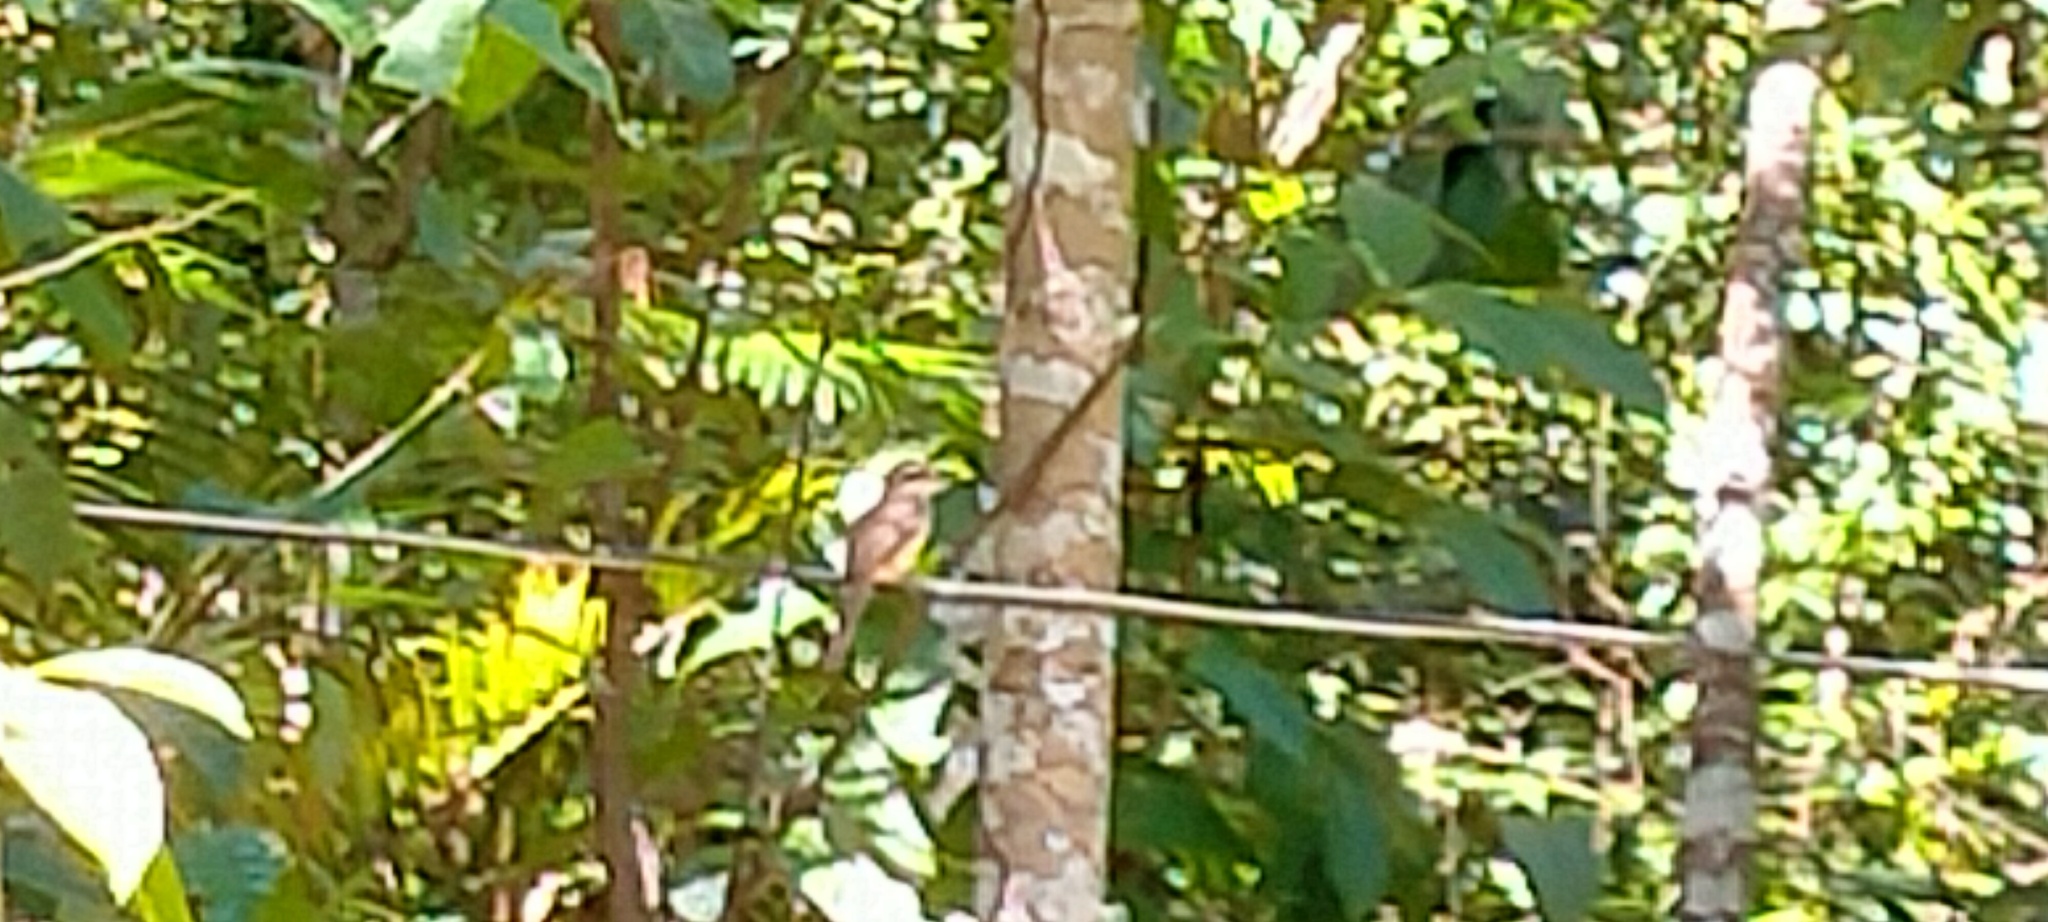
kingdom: Animalia
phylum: Chordata
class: Aves
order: Passeriformes
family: Laniidae
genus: Lanius
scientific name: Lanius cristatus
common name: Brown shrike
